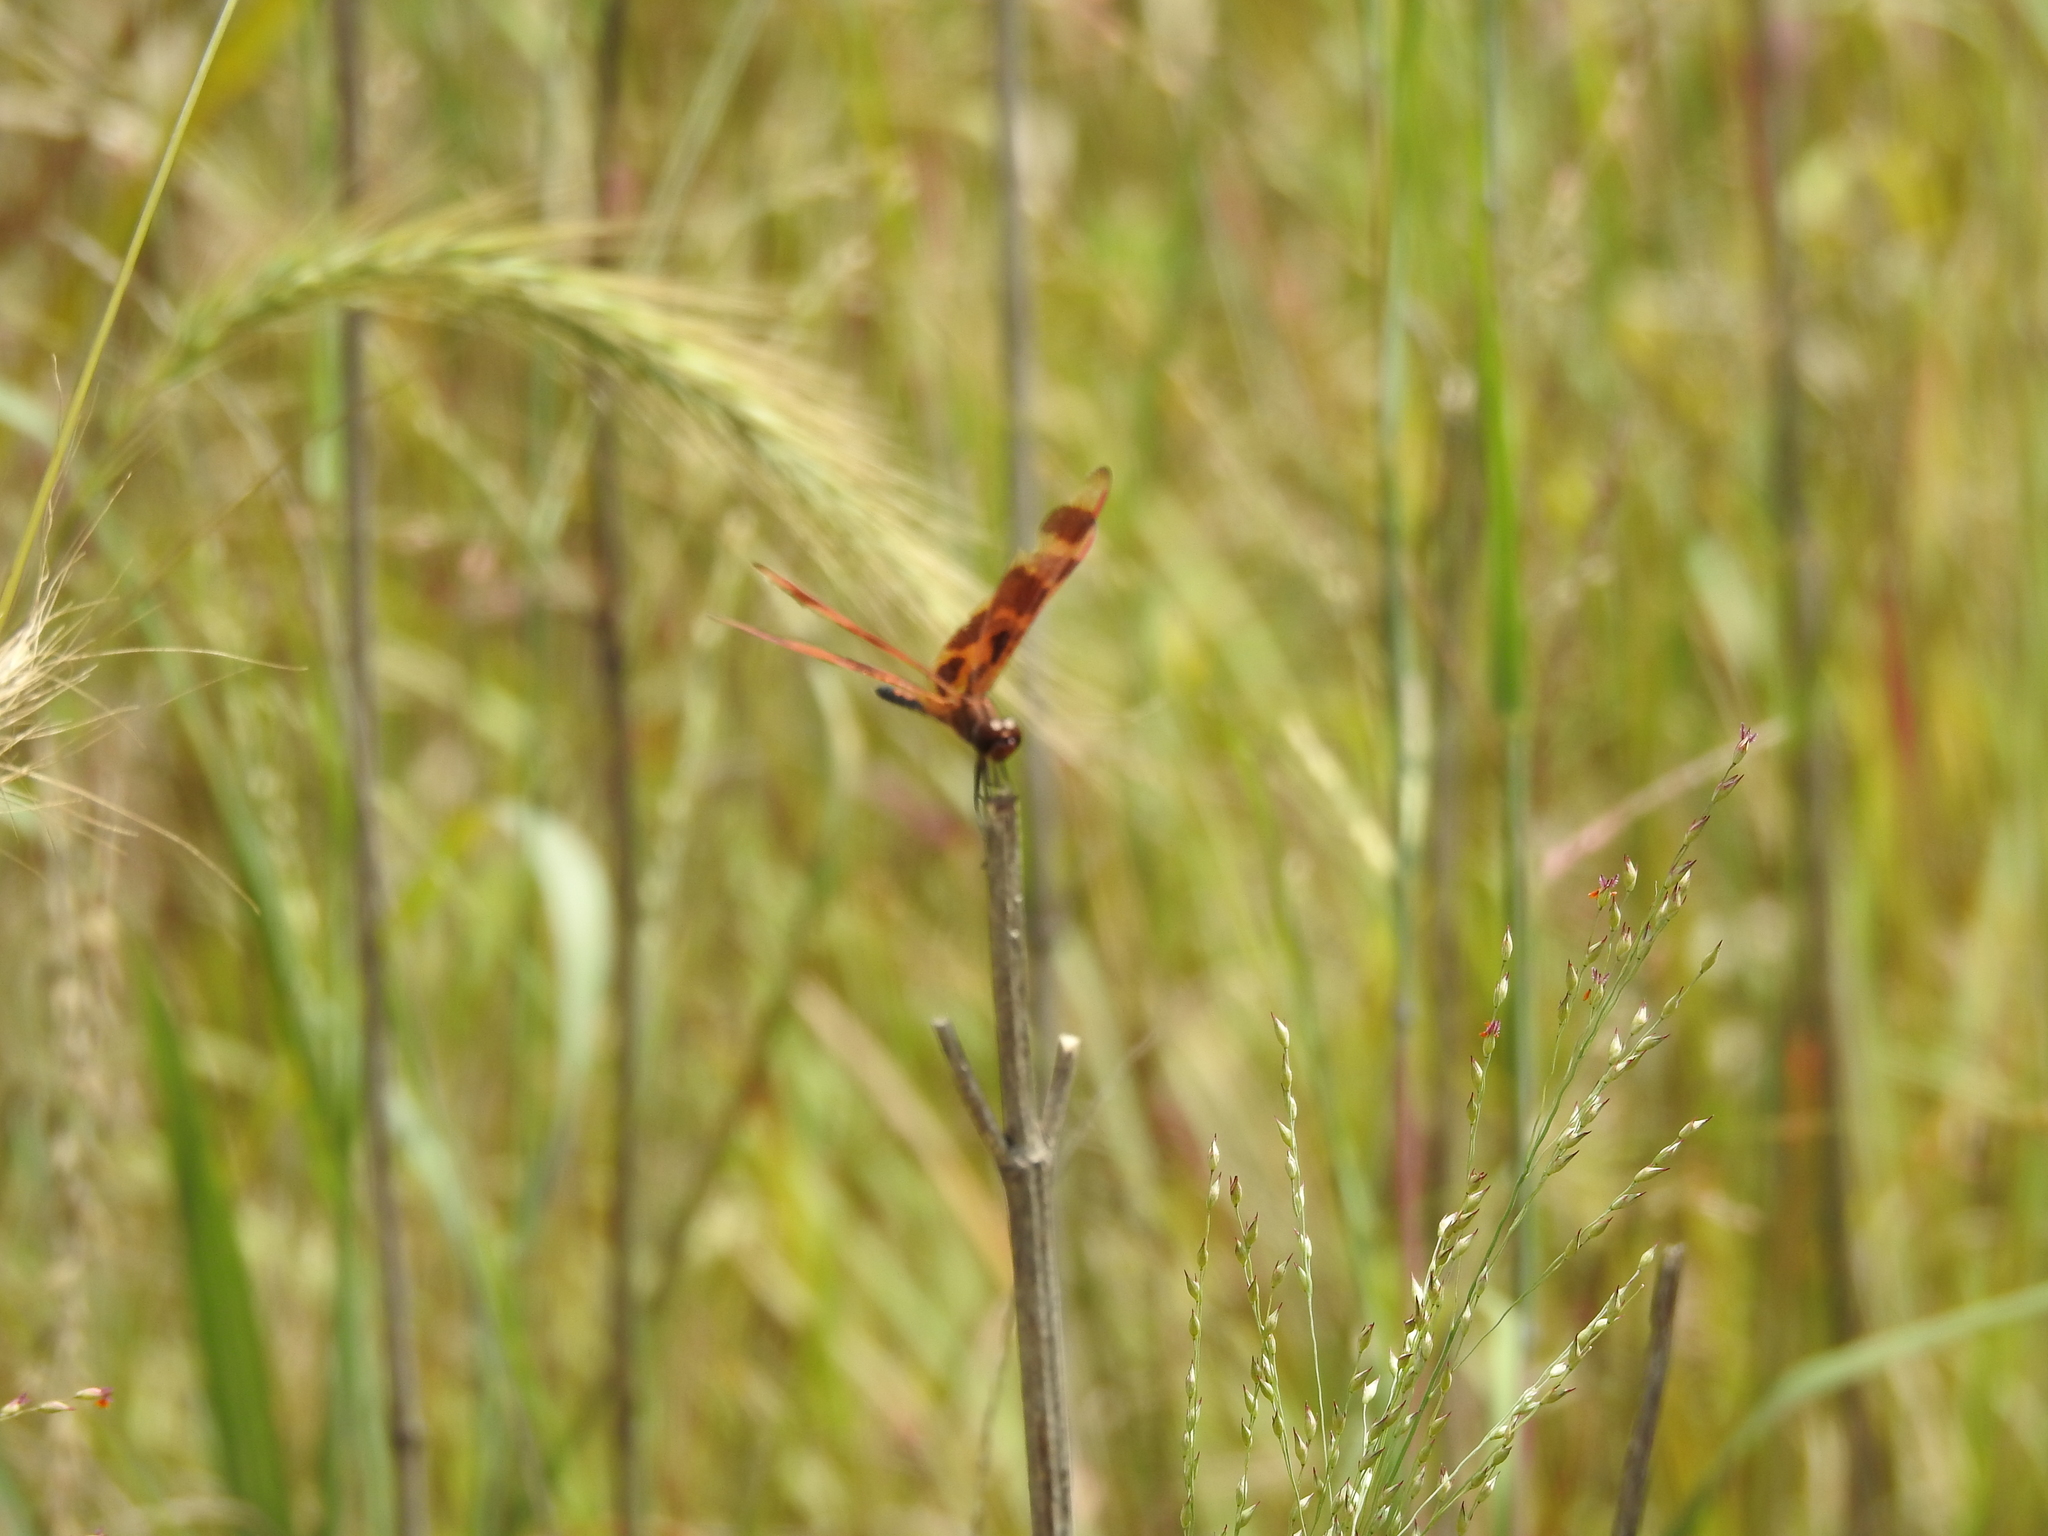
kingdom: Animalia
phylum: Arthropoda
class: Insecta
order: Odonata
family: Libellulidae
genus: Celithemis
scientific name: Celithemis eponina
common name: Halloween pennant
